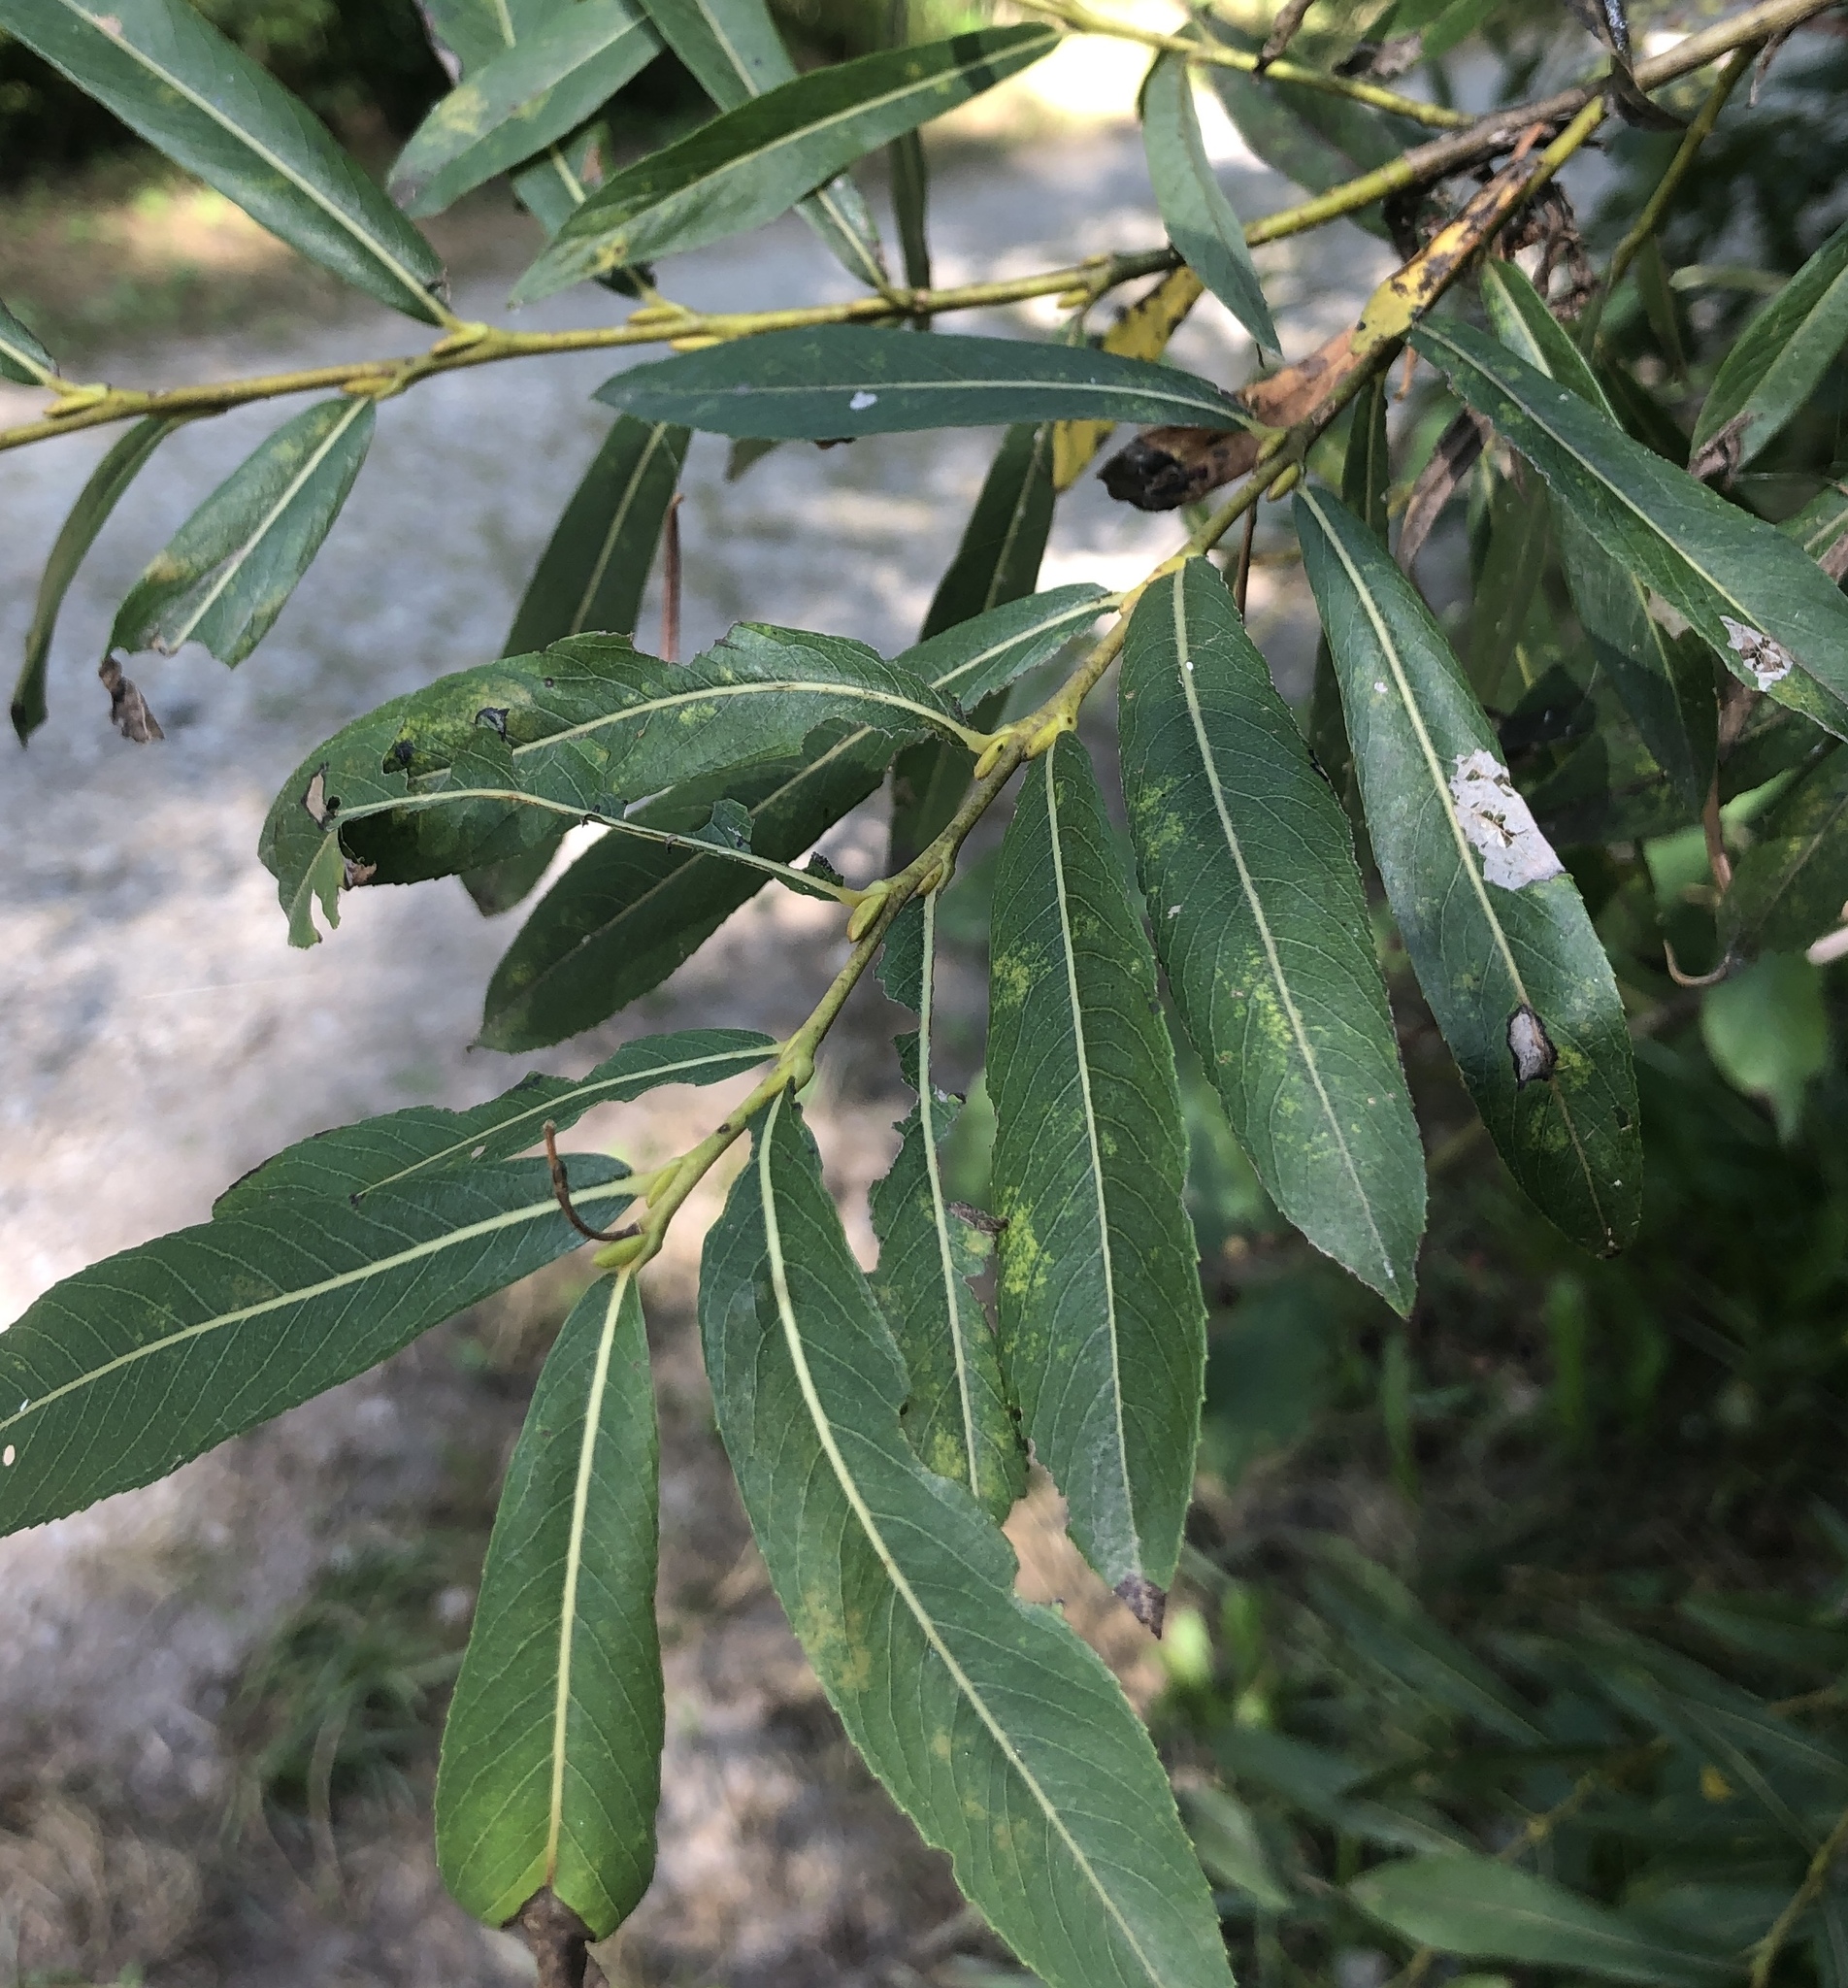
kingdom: Plantae
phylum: Tracheophyta
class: Magnoliopsida
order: Malpighiales
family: Salicaceae
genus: Salix
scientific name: Salix purpurea
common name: Purple willow
